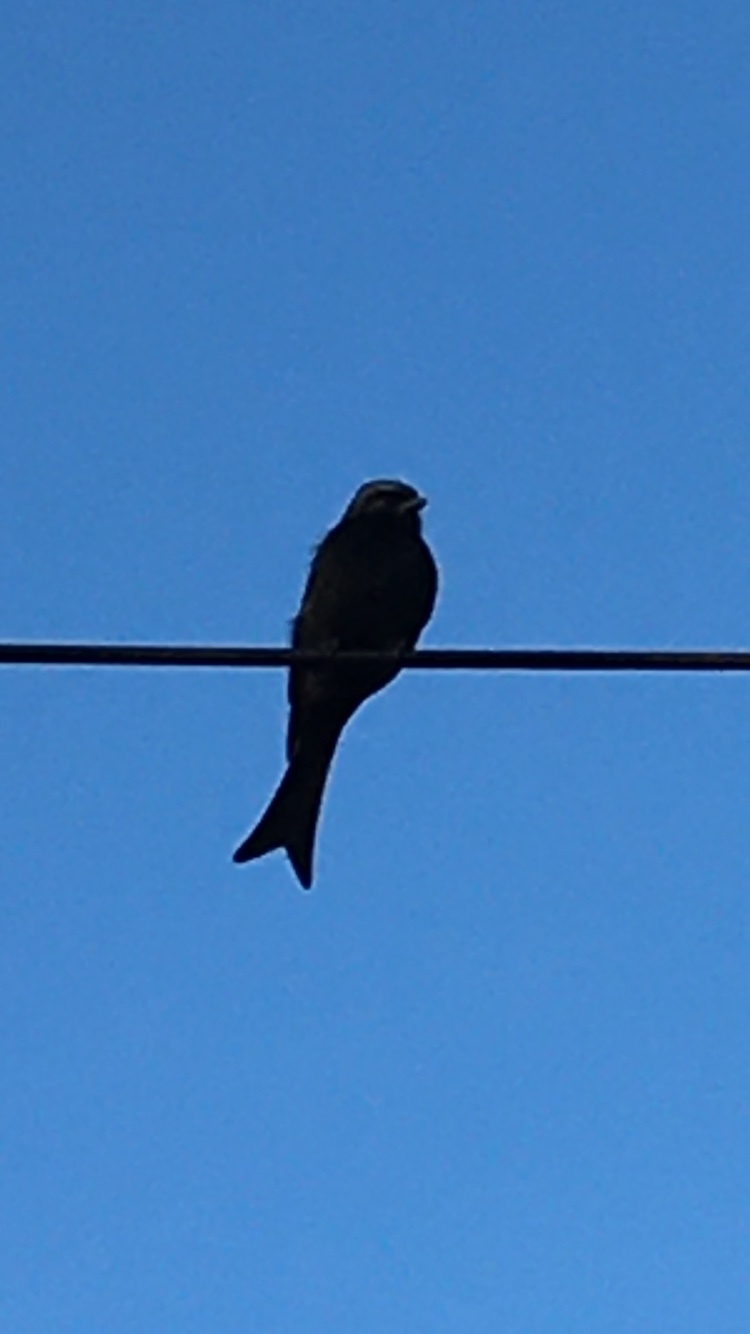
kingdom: Animalia
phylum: Chordata
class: Aves
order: Passeriformes
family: Dicruridae
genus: Dicrurus
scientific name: Dicrurus adsimilis
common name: Fork-tailed drongo
